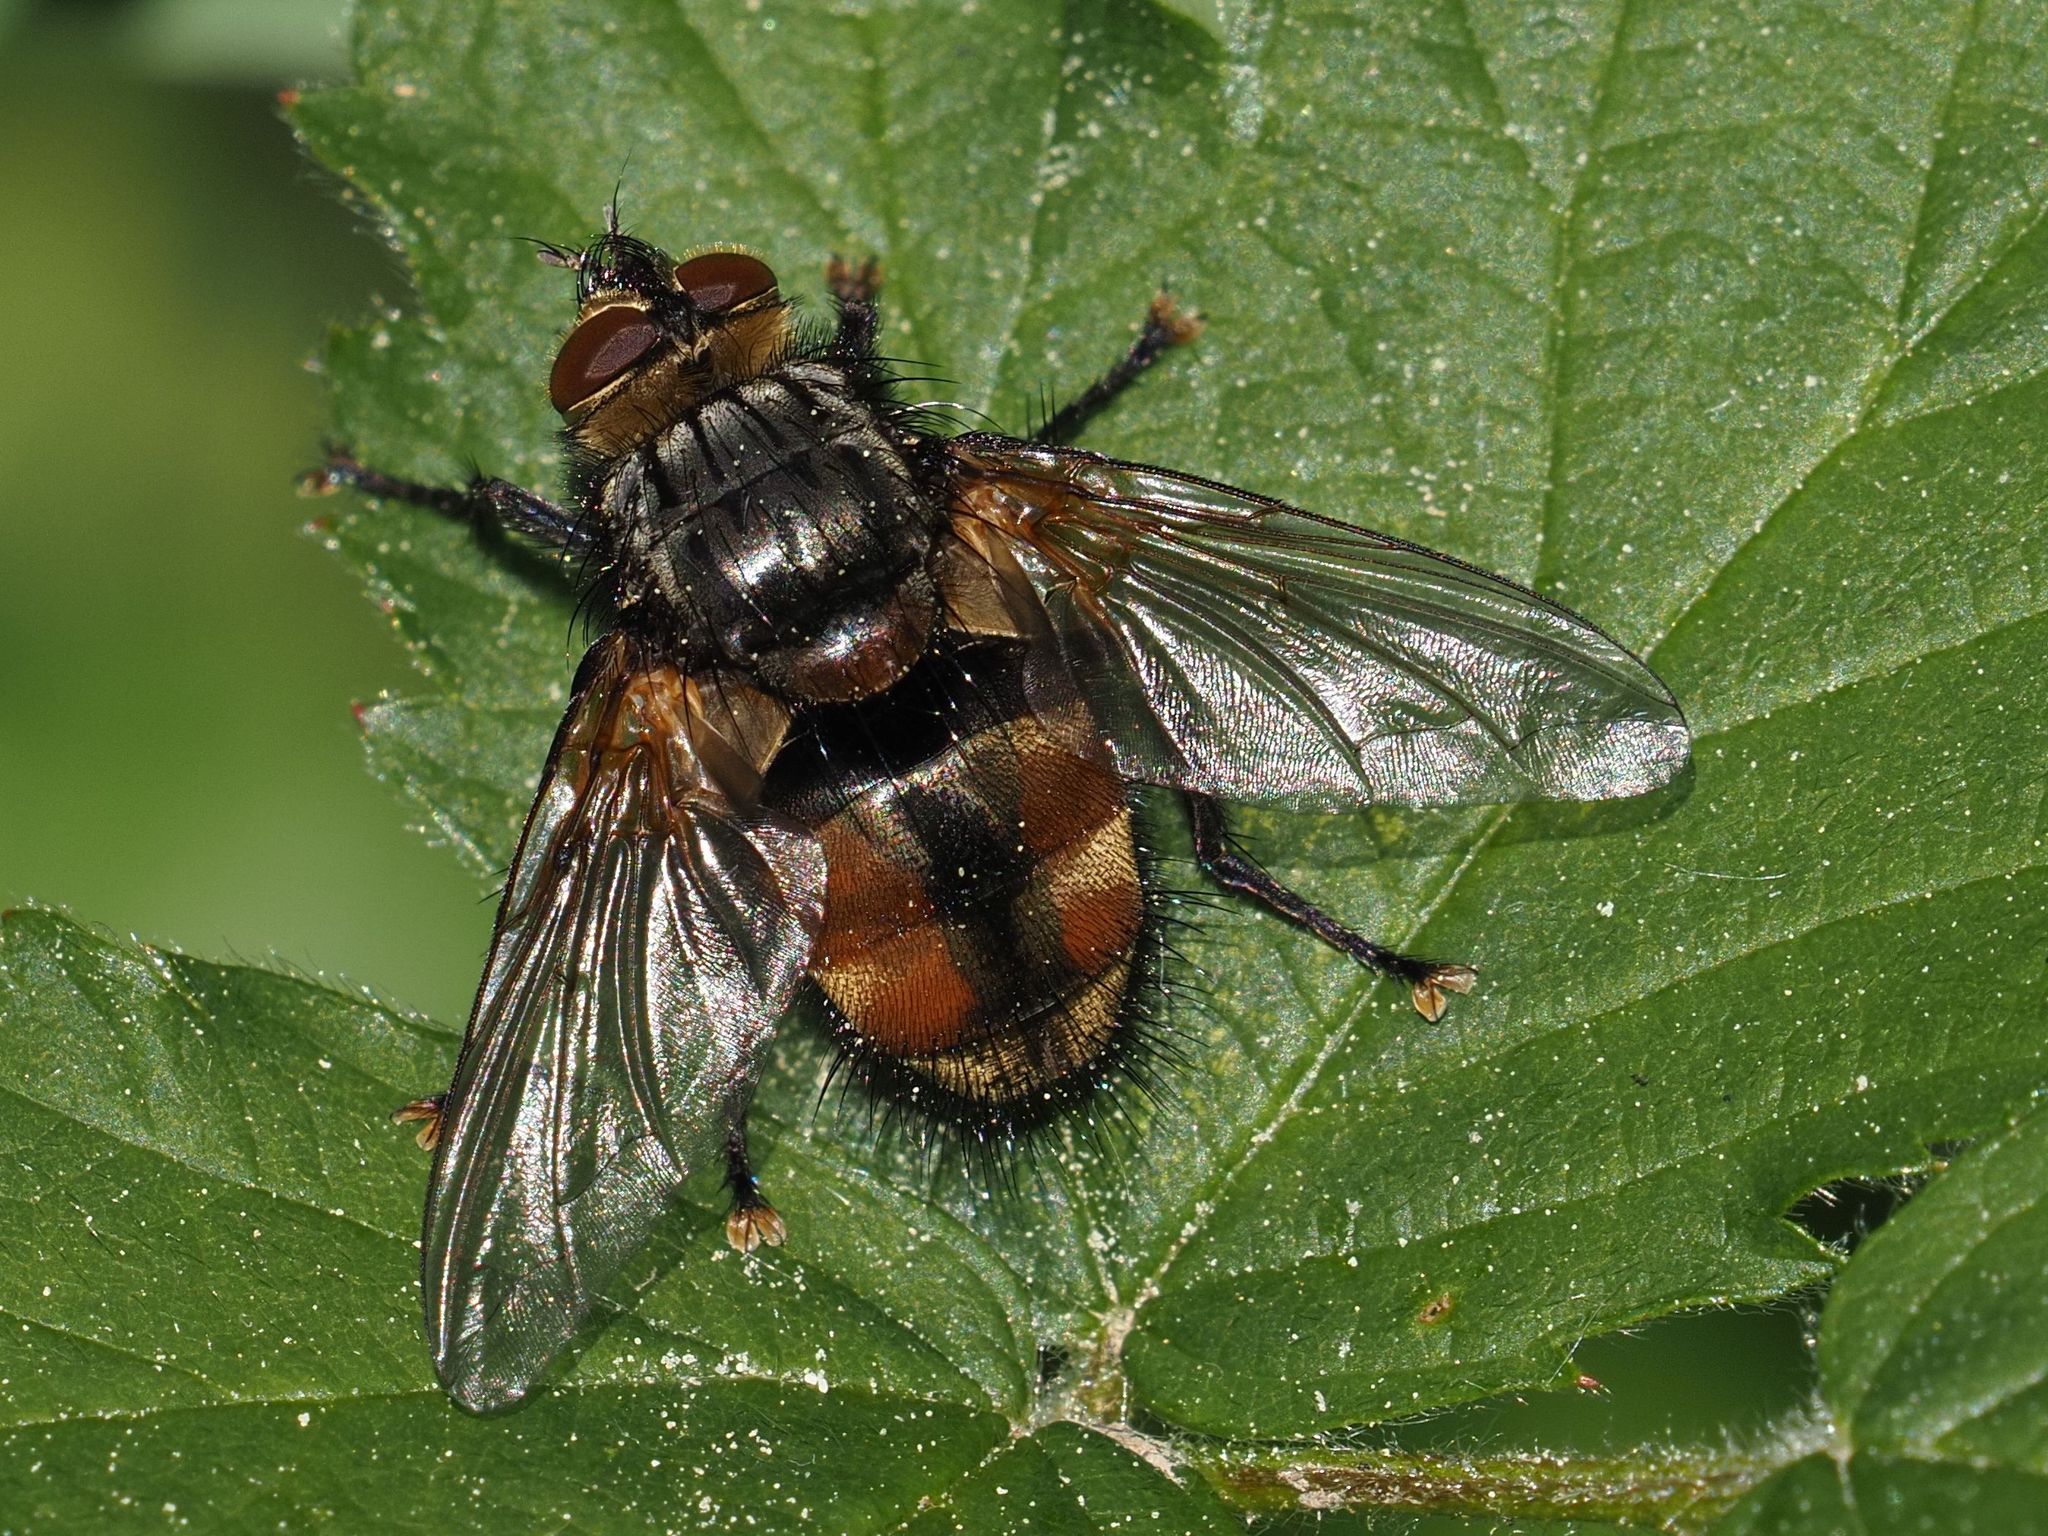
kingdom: Animalia
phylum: Arthropoda
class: Insecta
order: Diptera
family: Tachinidae
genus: Nemoraea
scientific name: Nemoraea pellucida
